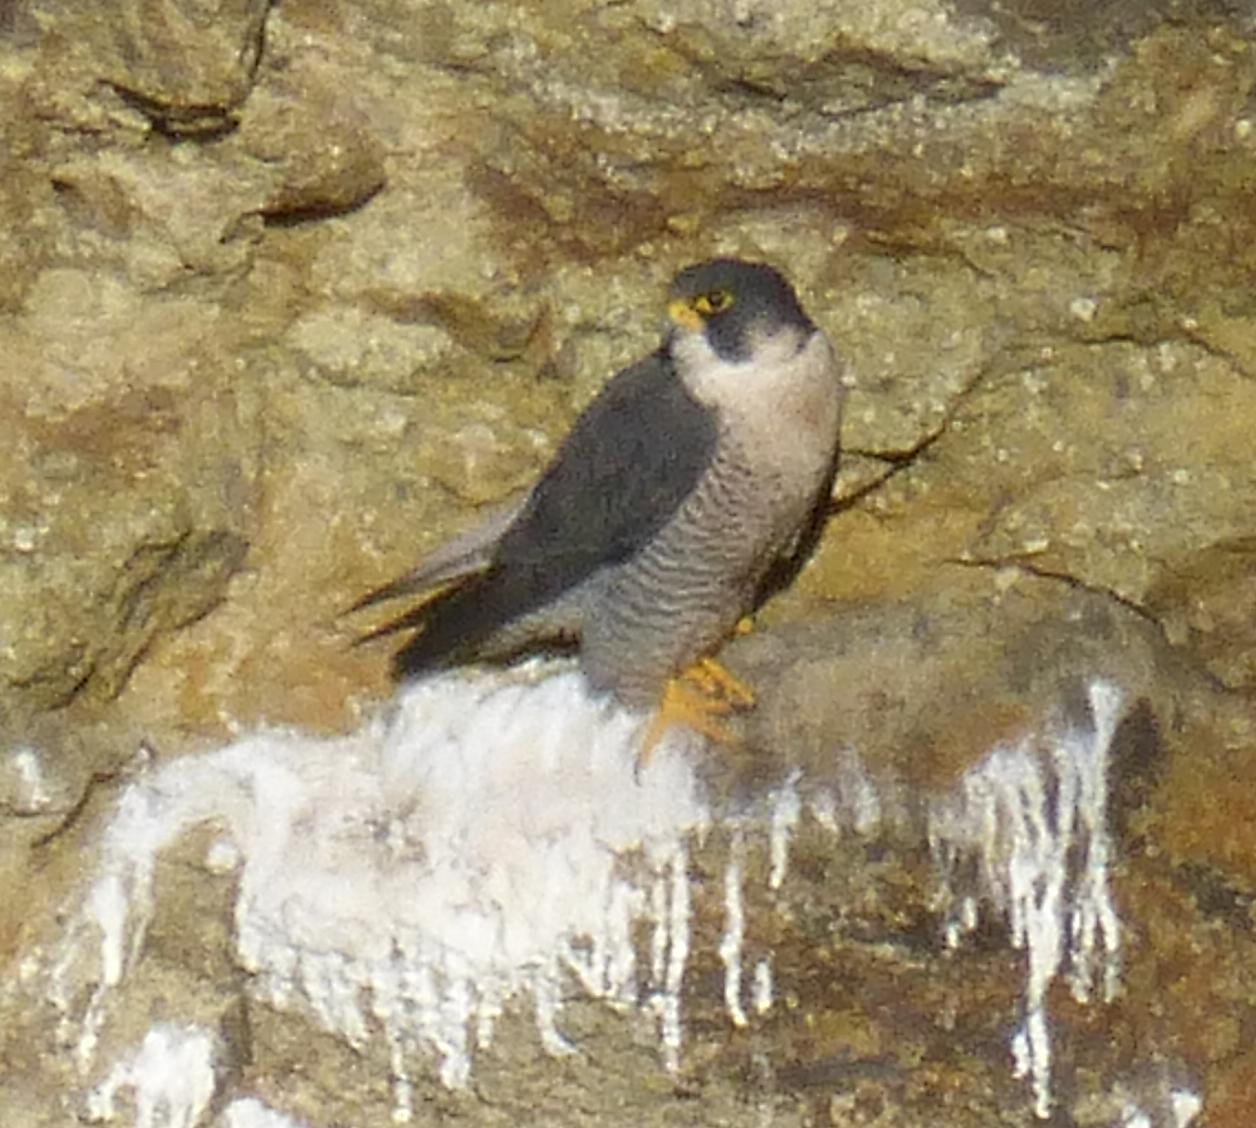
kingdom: Animalia
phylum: Chordata
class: Aves
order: Falconiformes
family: Falconidae
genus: Falco
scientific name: Falco peregrinus
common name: Peregrine falcon
